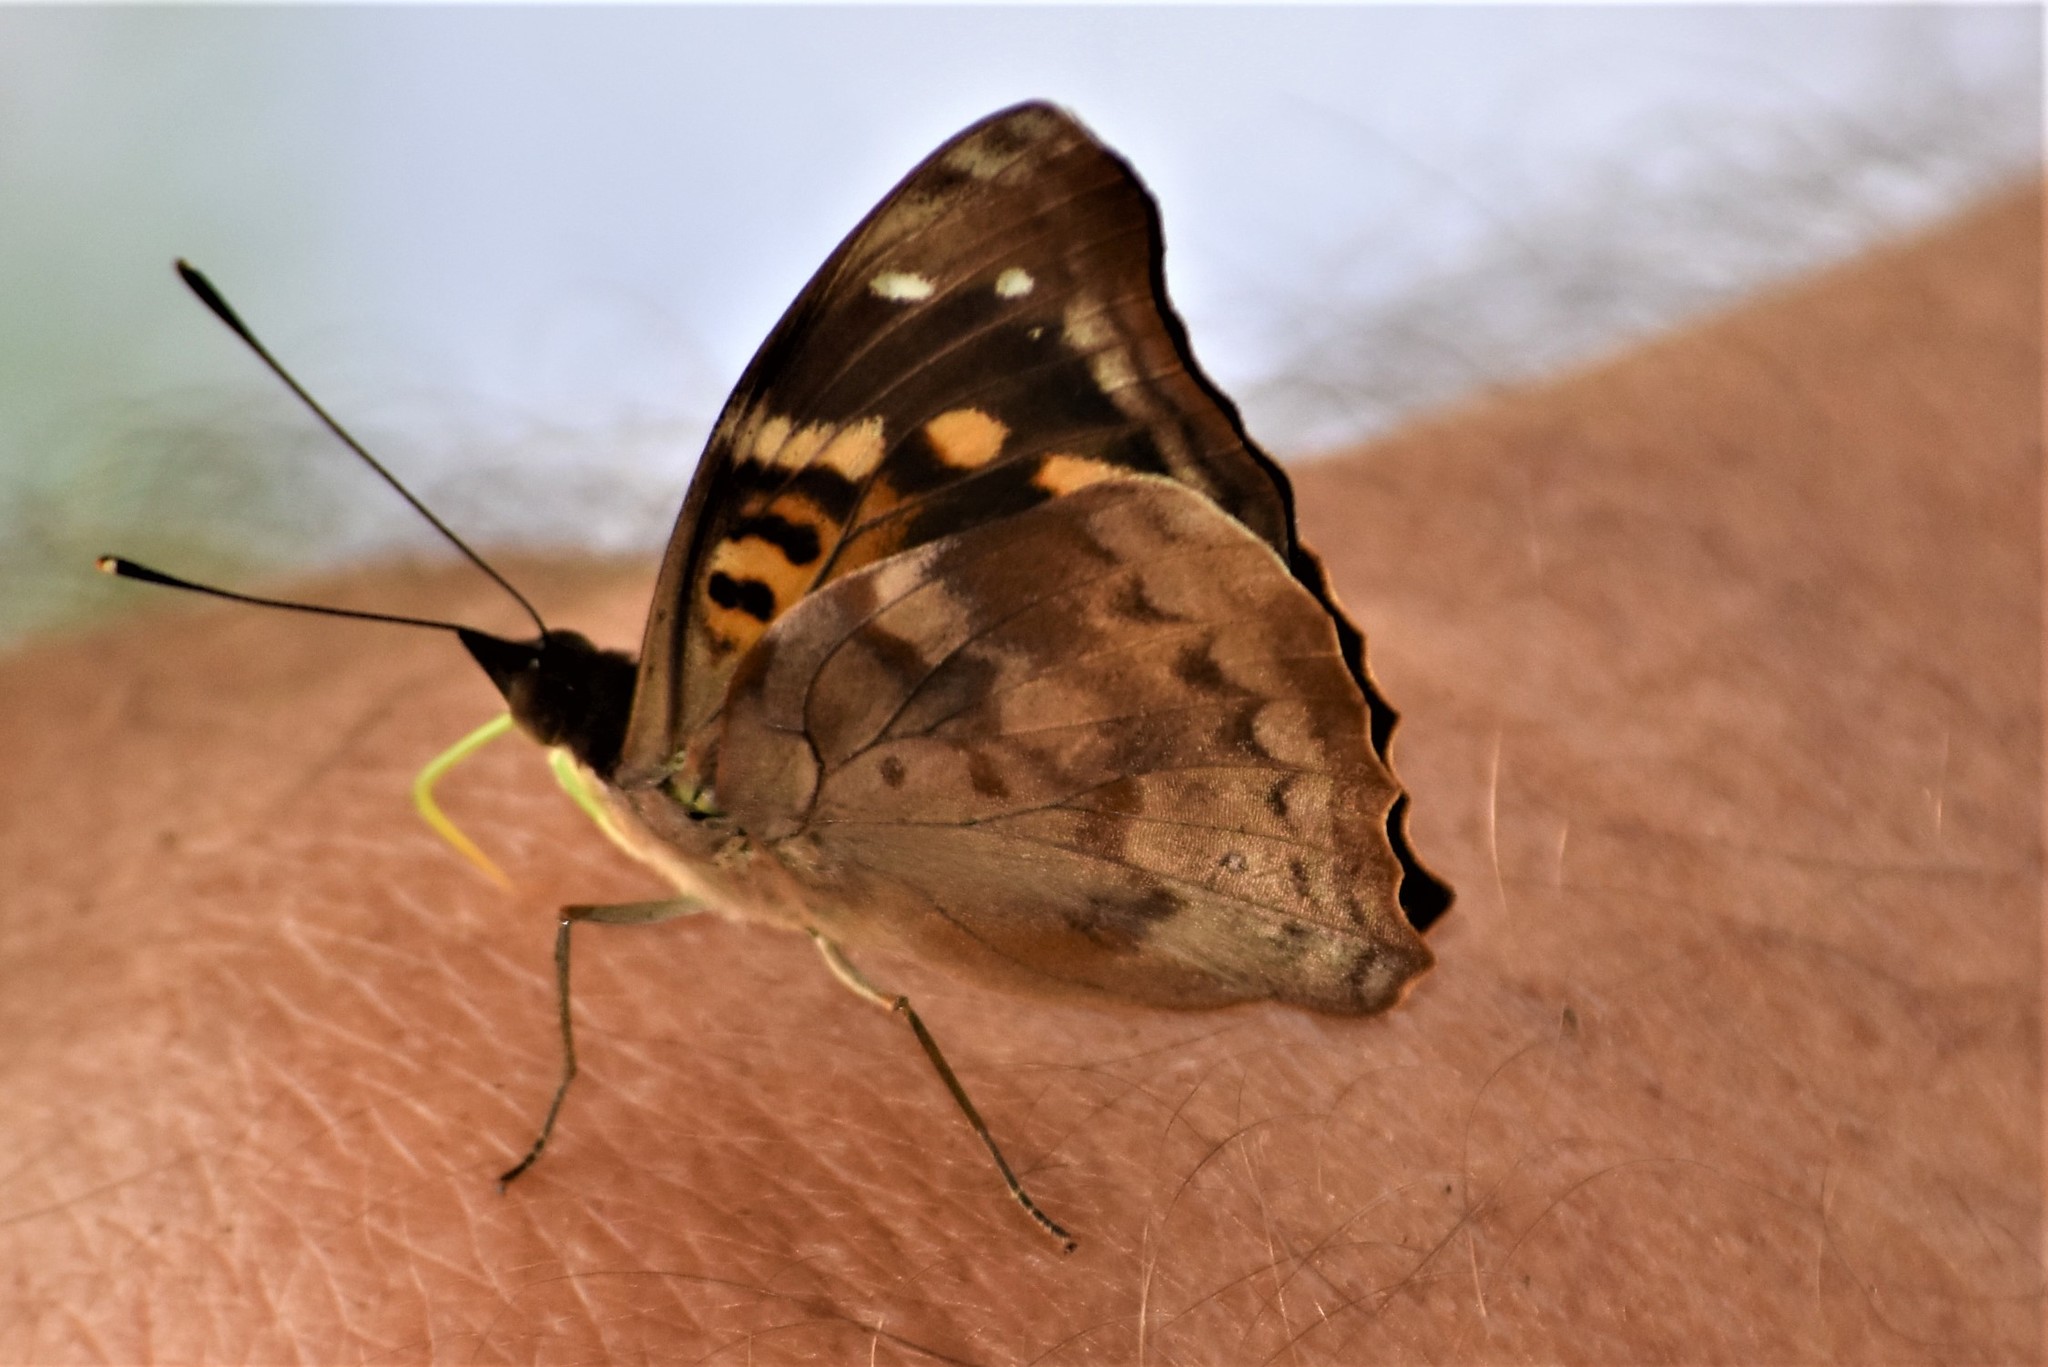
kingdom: Animalia
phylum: Arthropoda
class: Insecta
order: Lepidoptera
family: Nymphalidae
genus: Doxocopa
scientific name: Doxocopa agathina
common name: Agathina emperor
